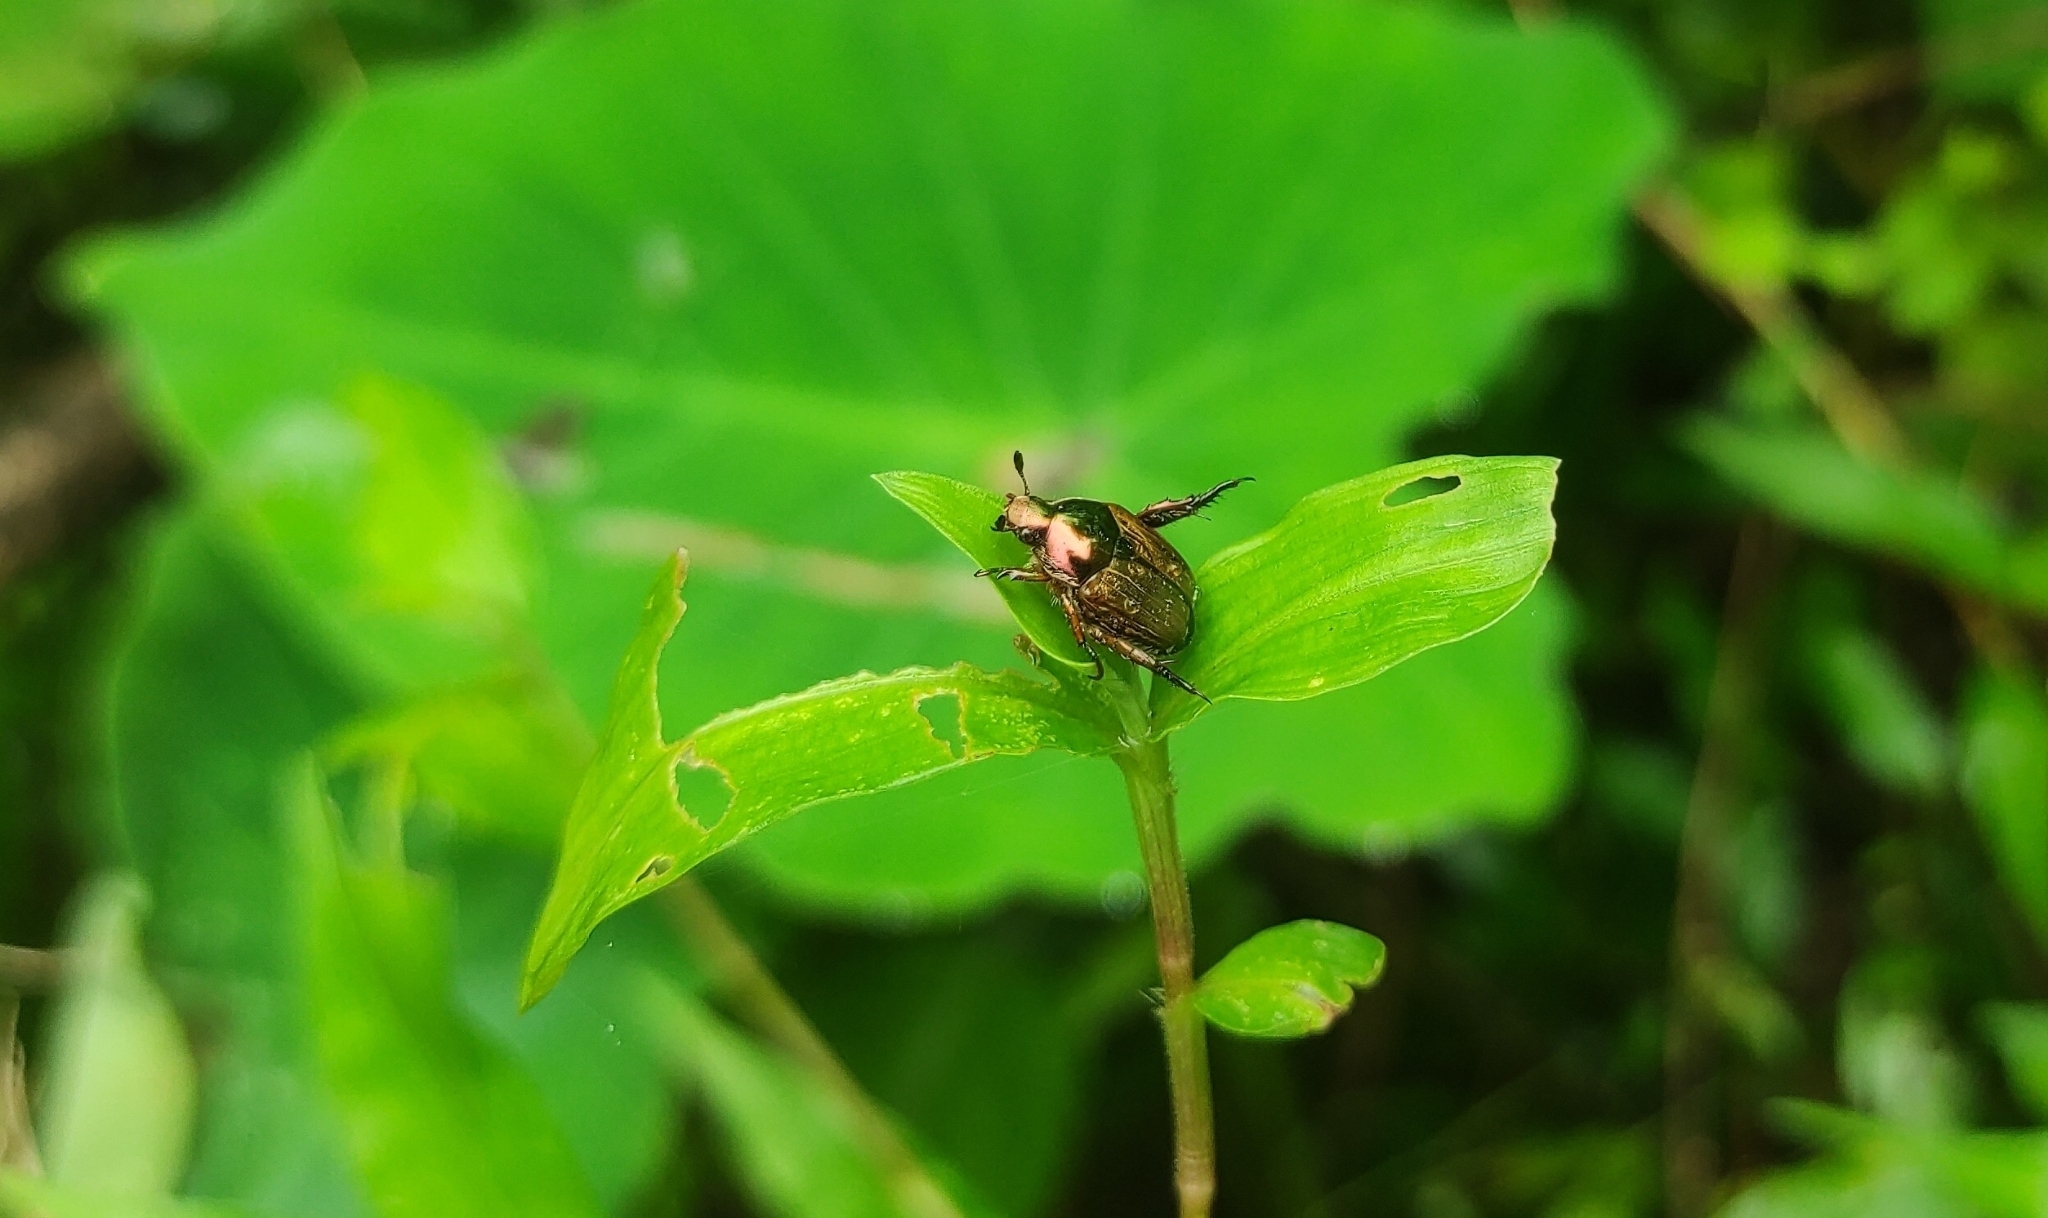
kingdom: Animalia
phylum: Arthropoda
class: Insecta
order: Coleoptera
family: Scarabaeidae
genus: Popillia
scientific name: Popillia japonica
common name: Japanese beetle
